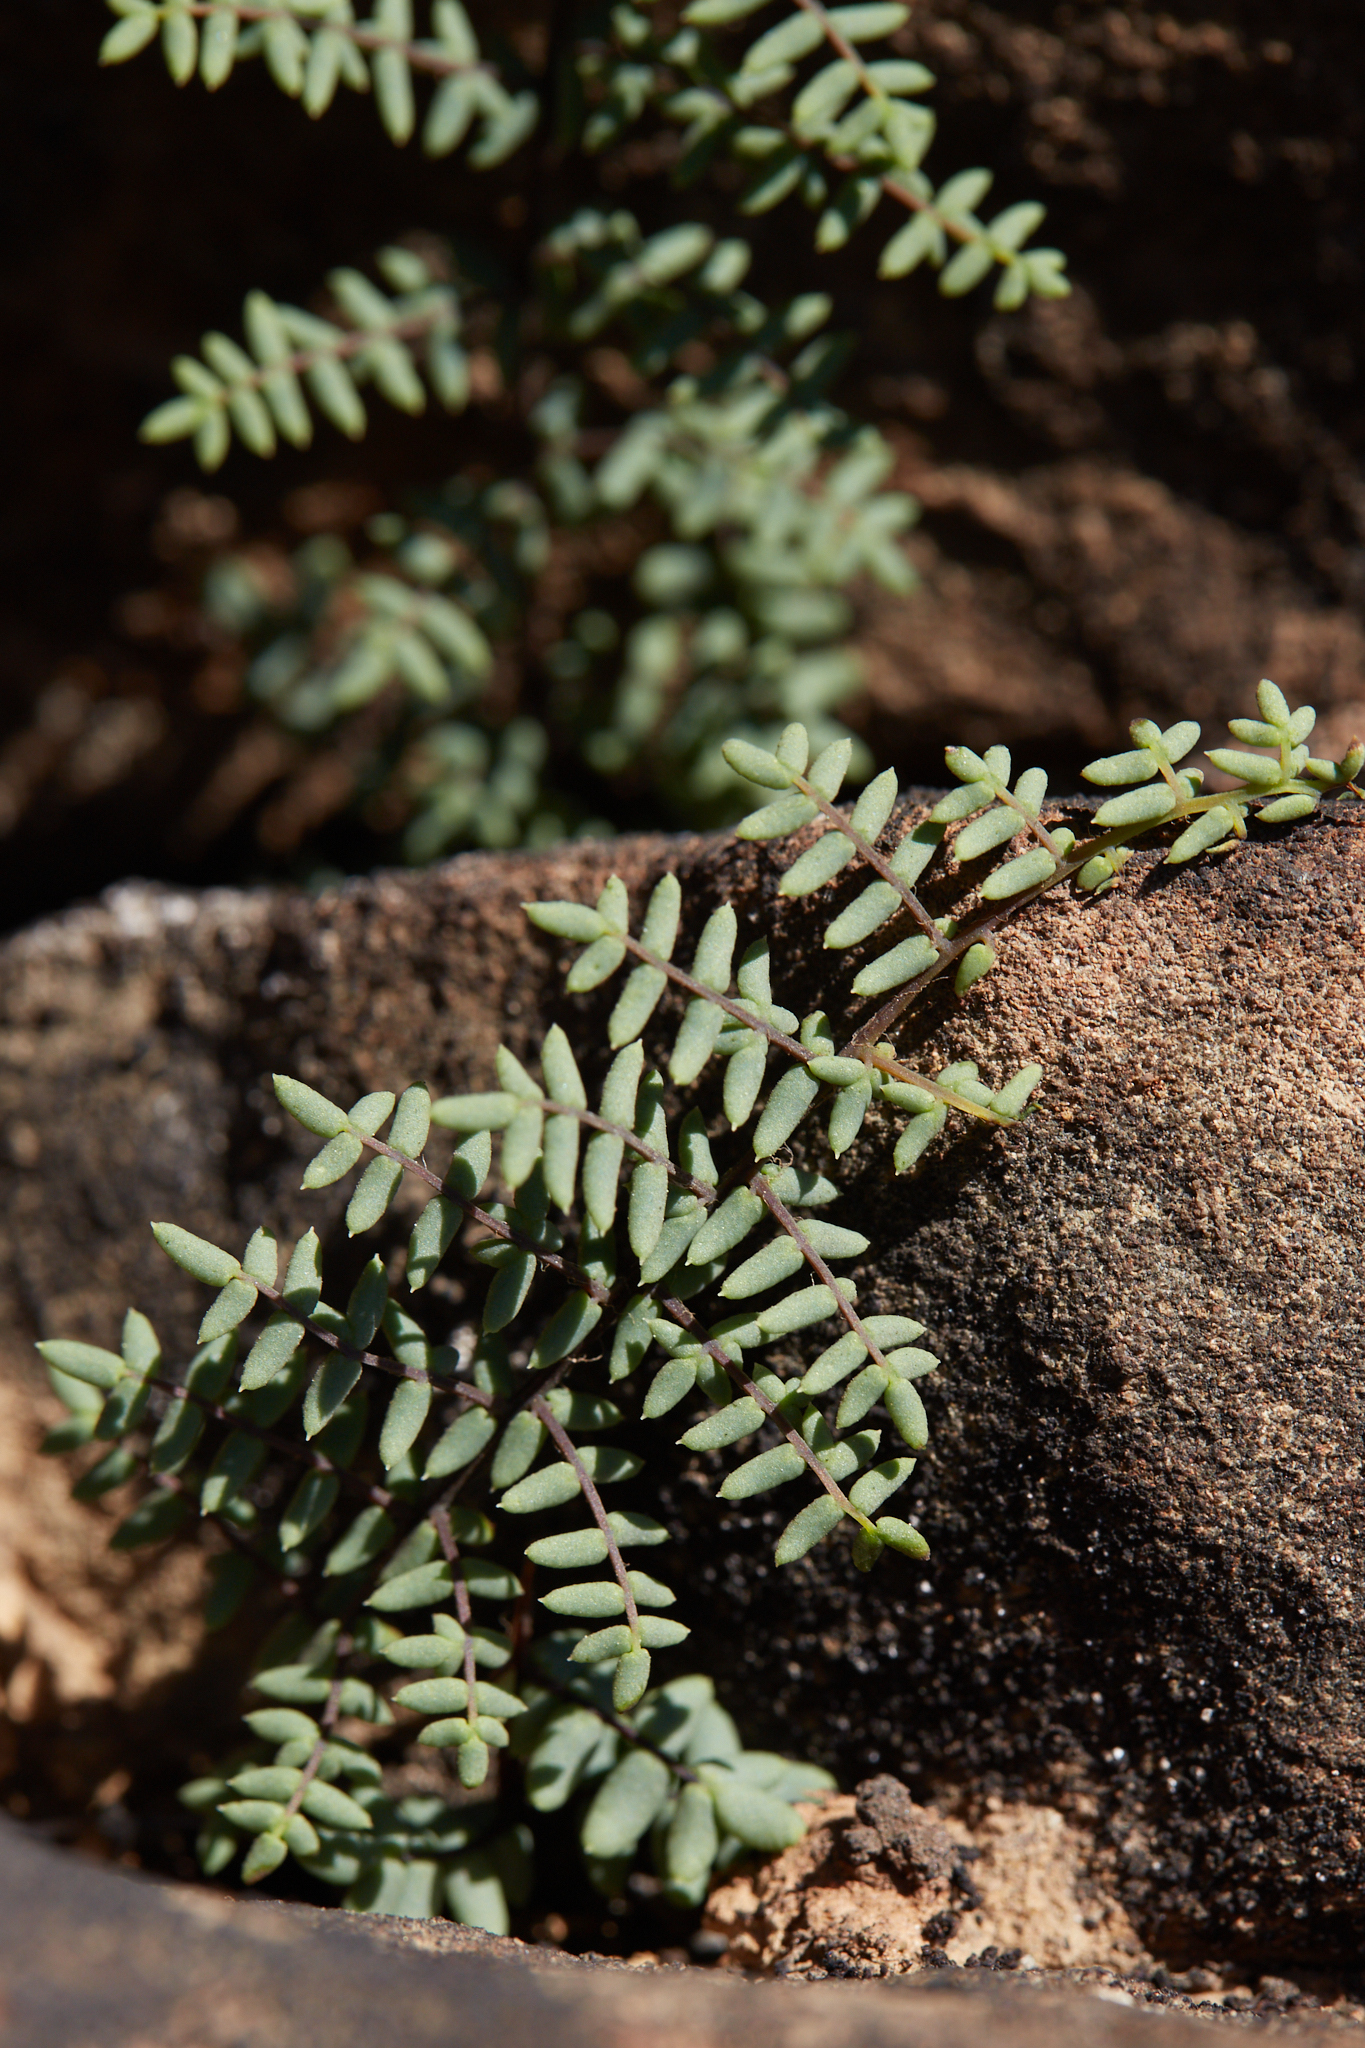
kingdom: Plantae
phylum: Tracheophyta
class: Polypodiopsida
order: Polypodiales
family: Pteridaceae
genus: Pellaea
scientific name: Pellaea mucronata
